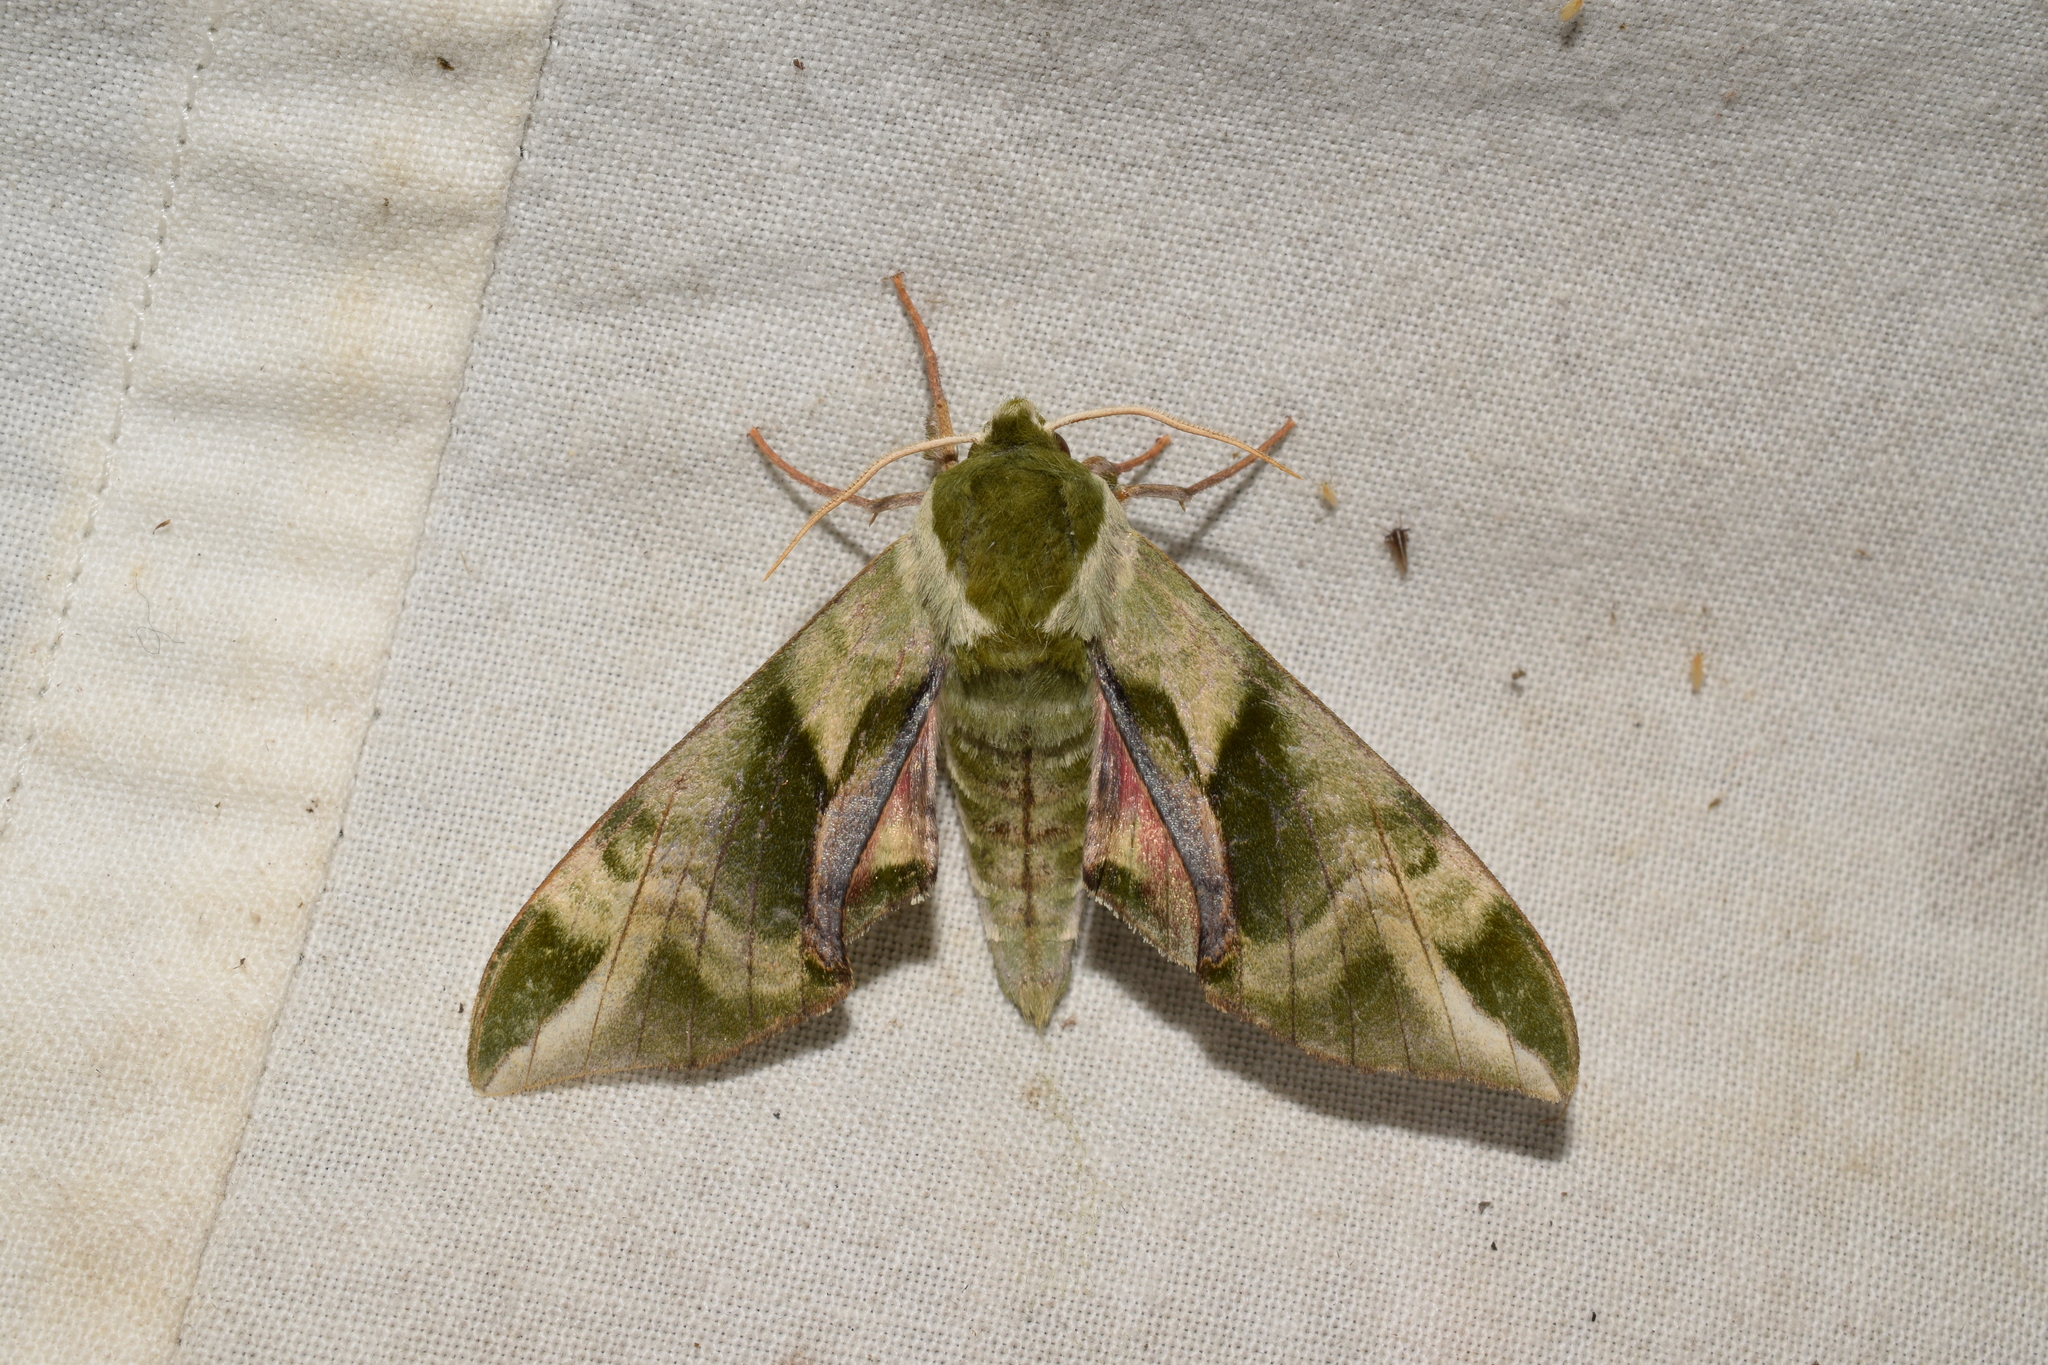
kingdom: Animalia
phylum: Arthropoda
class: Insecta
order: Lepidoptera
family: Sphingidae
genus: Callambulyx
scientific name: Callambulyx tatarinovii
